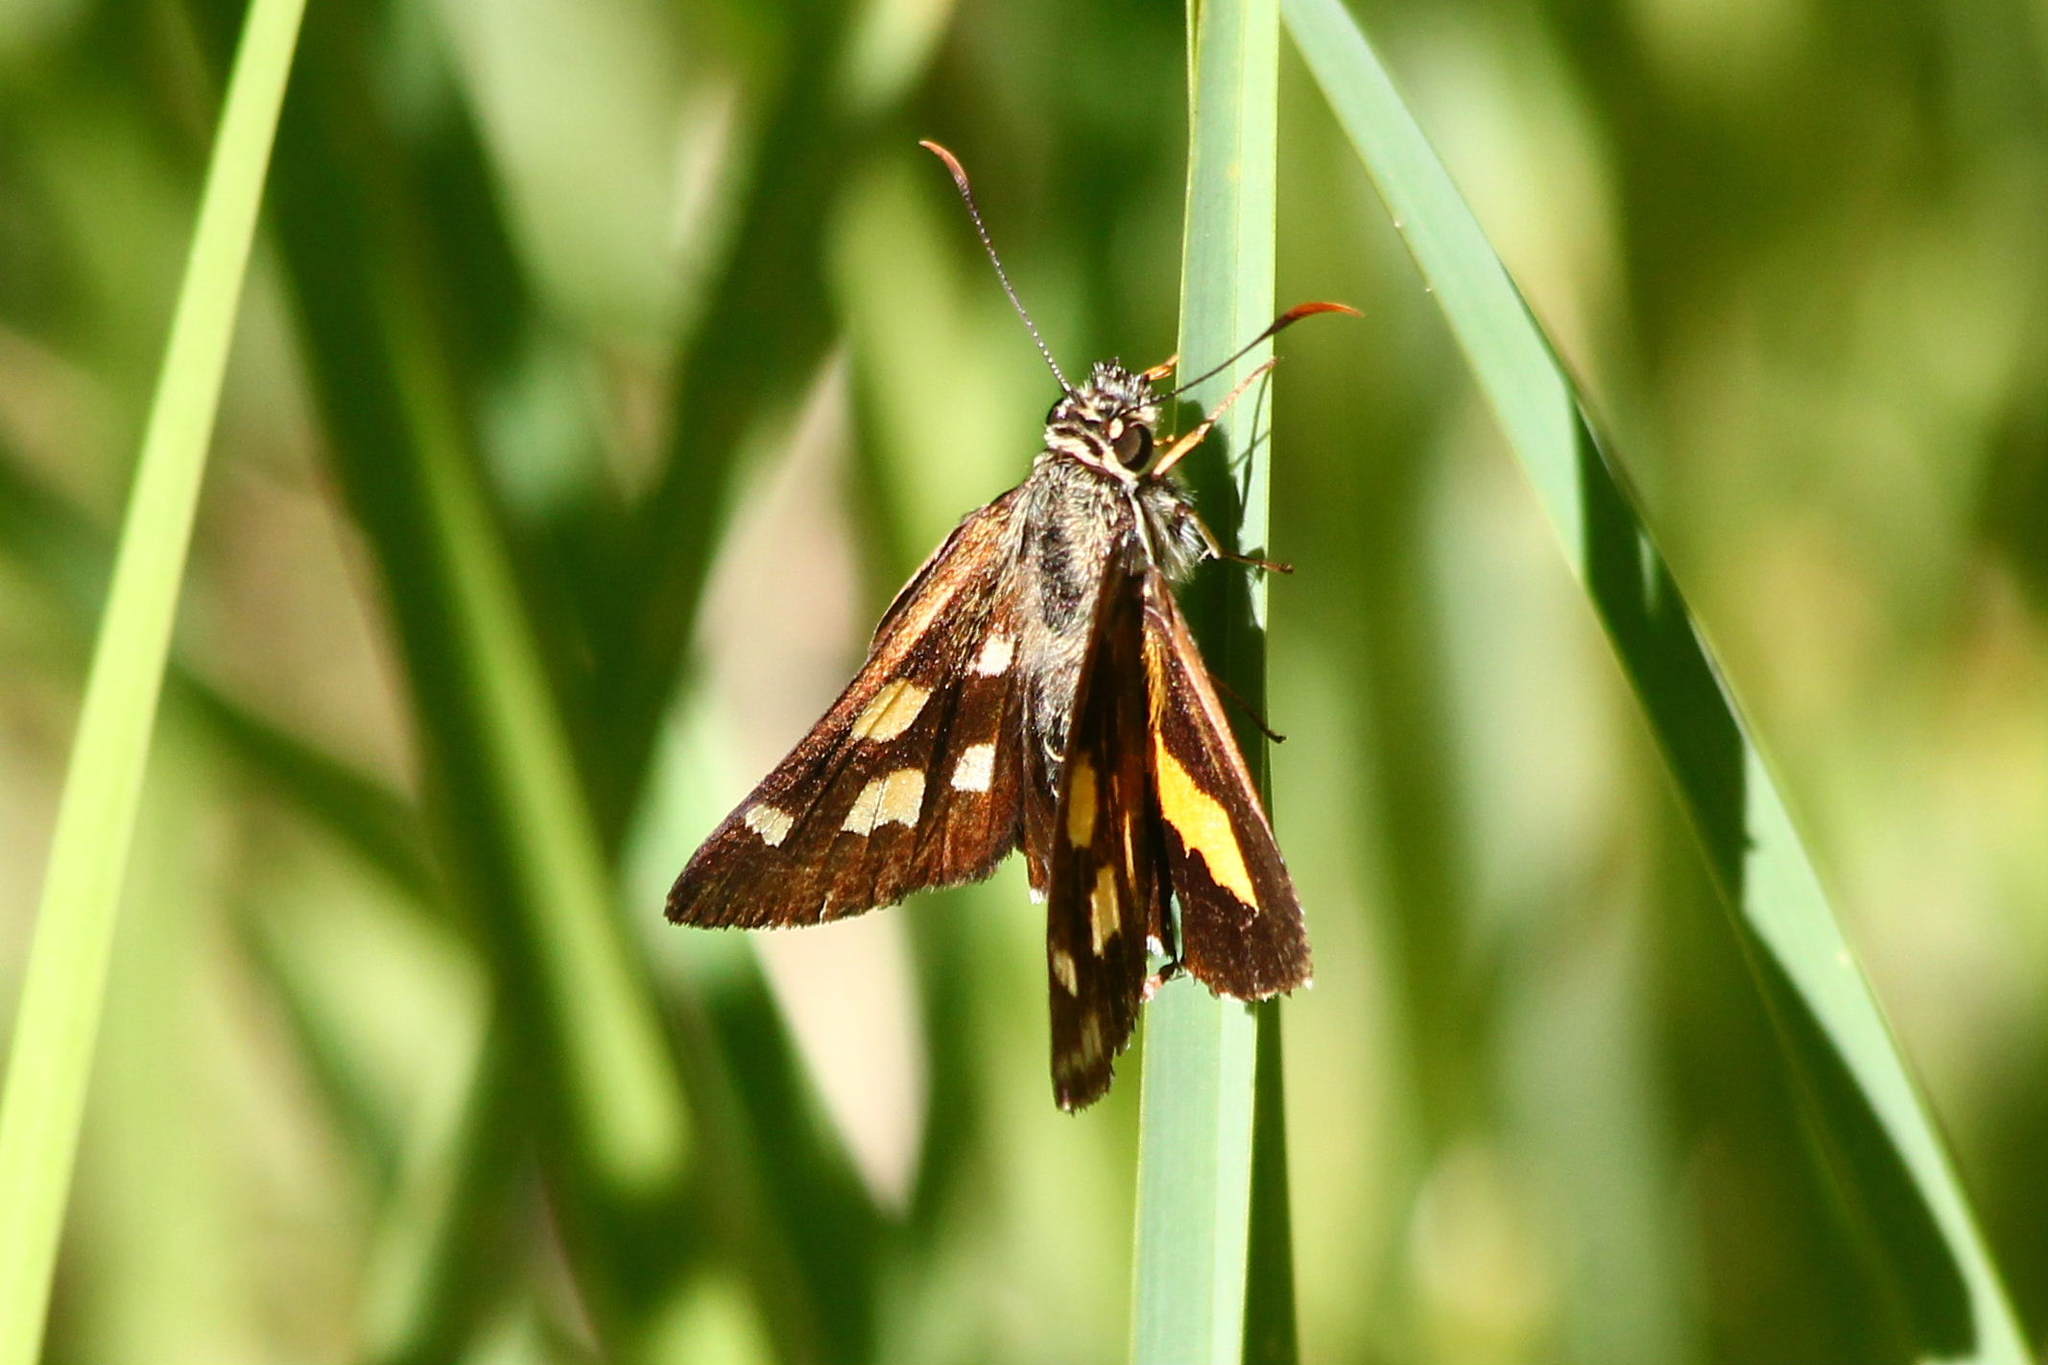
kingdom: Animalia
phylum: Arthropoda
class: Insecta
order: Lepidoptera
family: Hesperiidae
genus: Hesperilla
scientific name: Hesperilla picta
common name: Painted sedge-skipper
